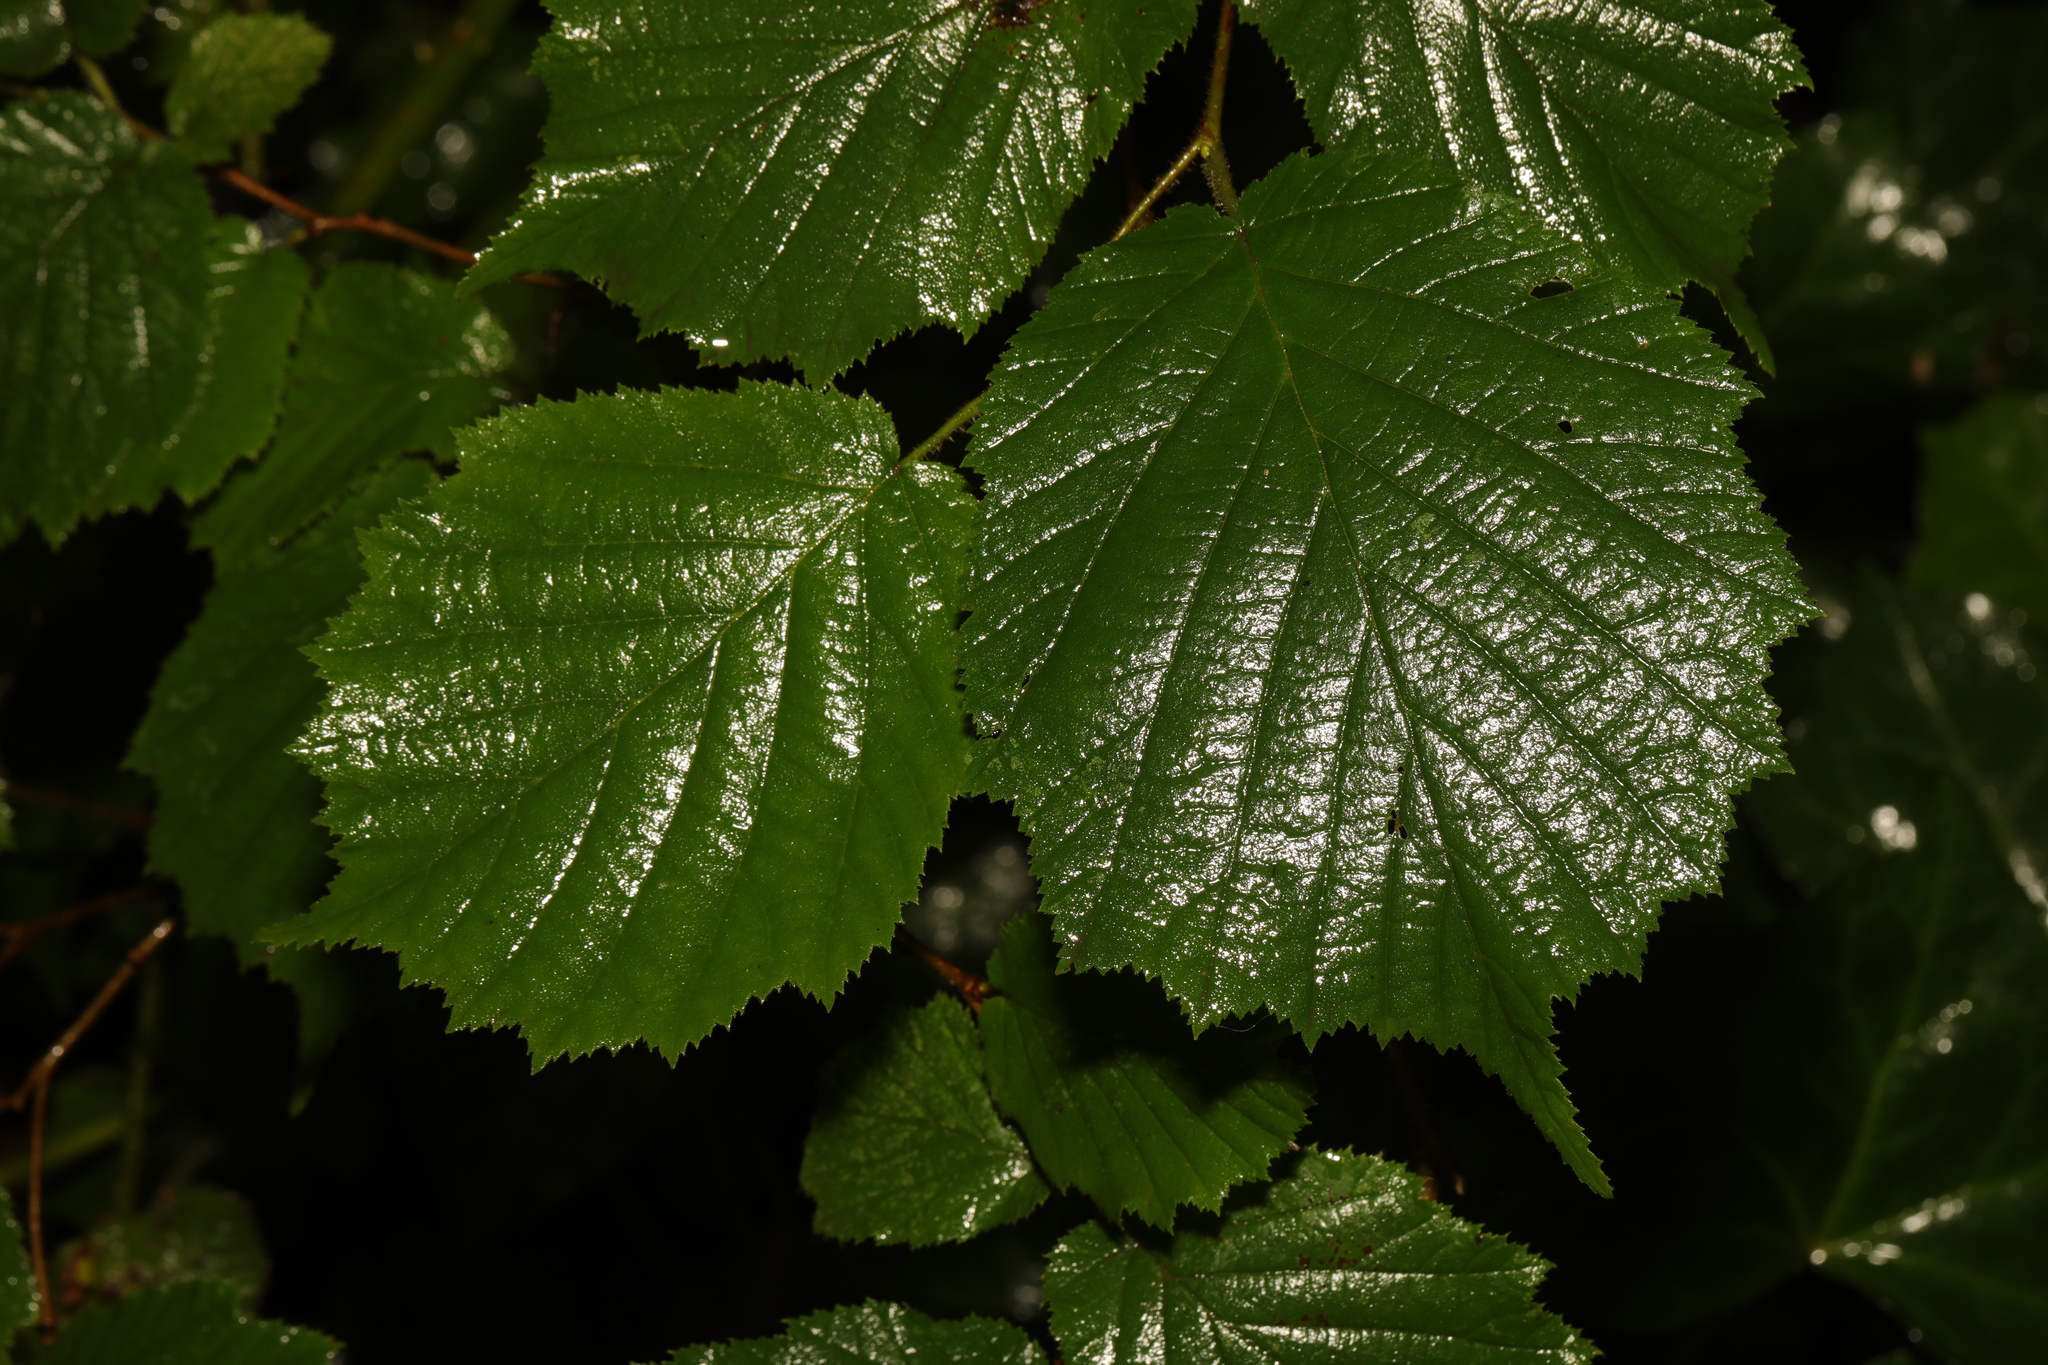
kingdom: Plantae
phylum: Tracheophyta
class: Magnoliopsida
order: Fagales
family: Betulaceae
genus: Corylus
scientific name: Corylus avellana
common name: European hazel
